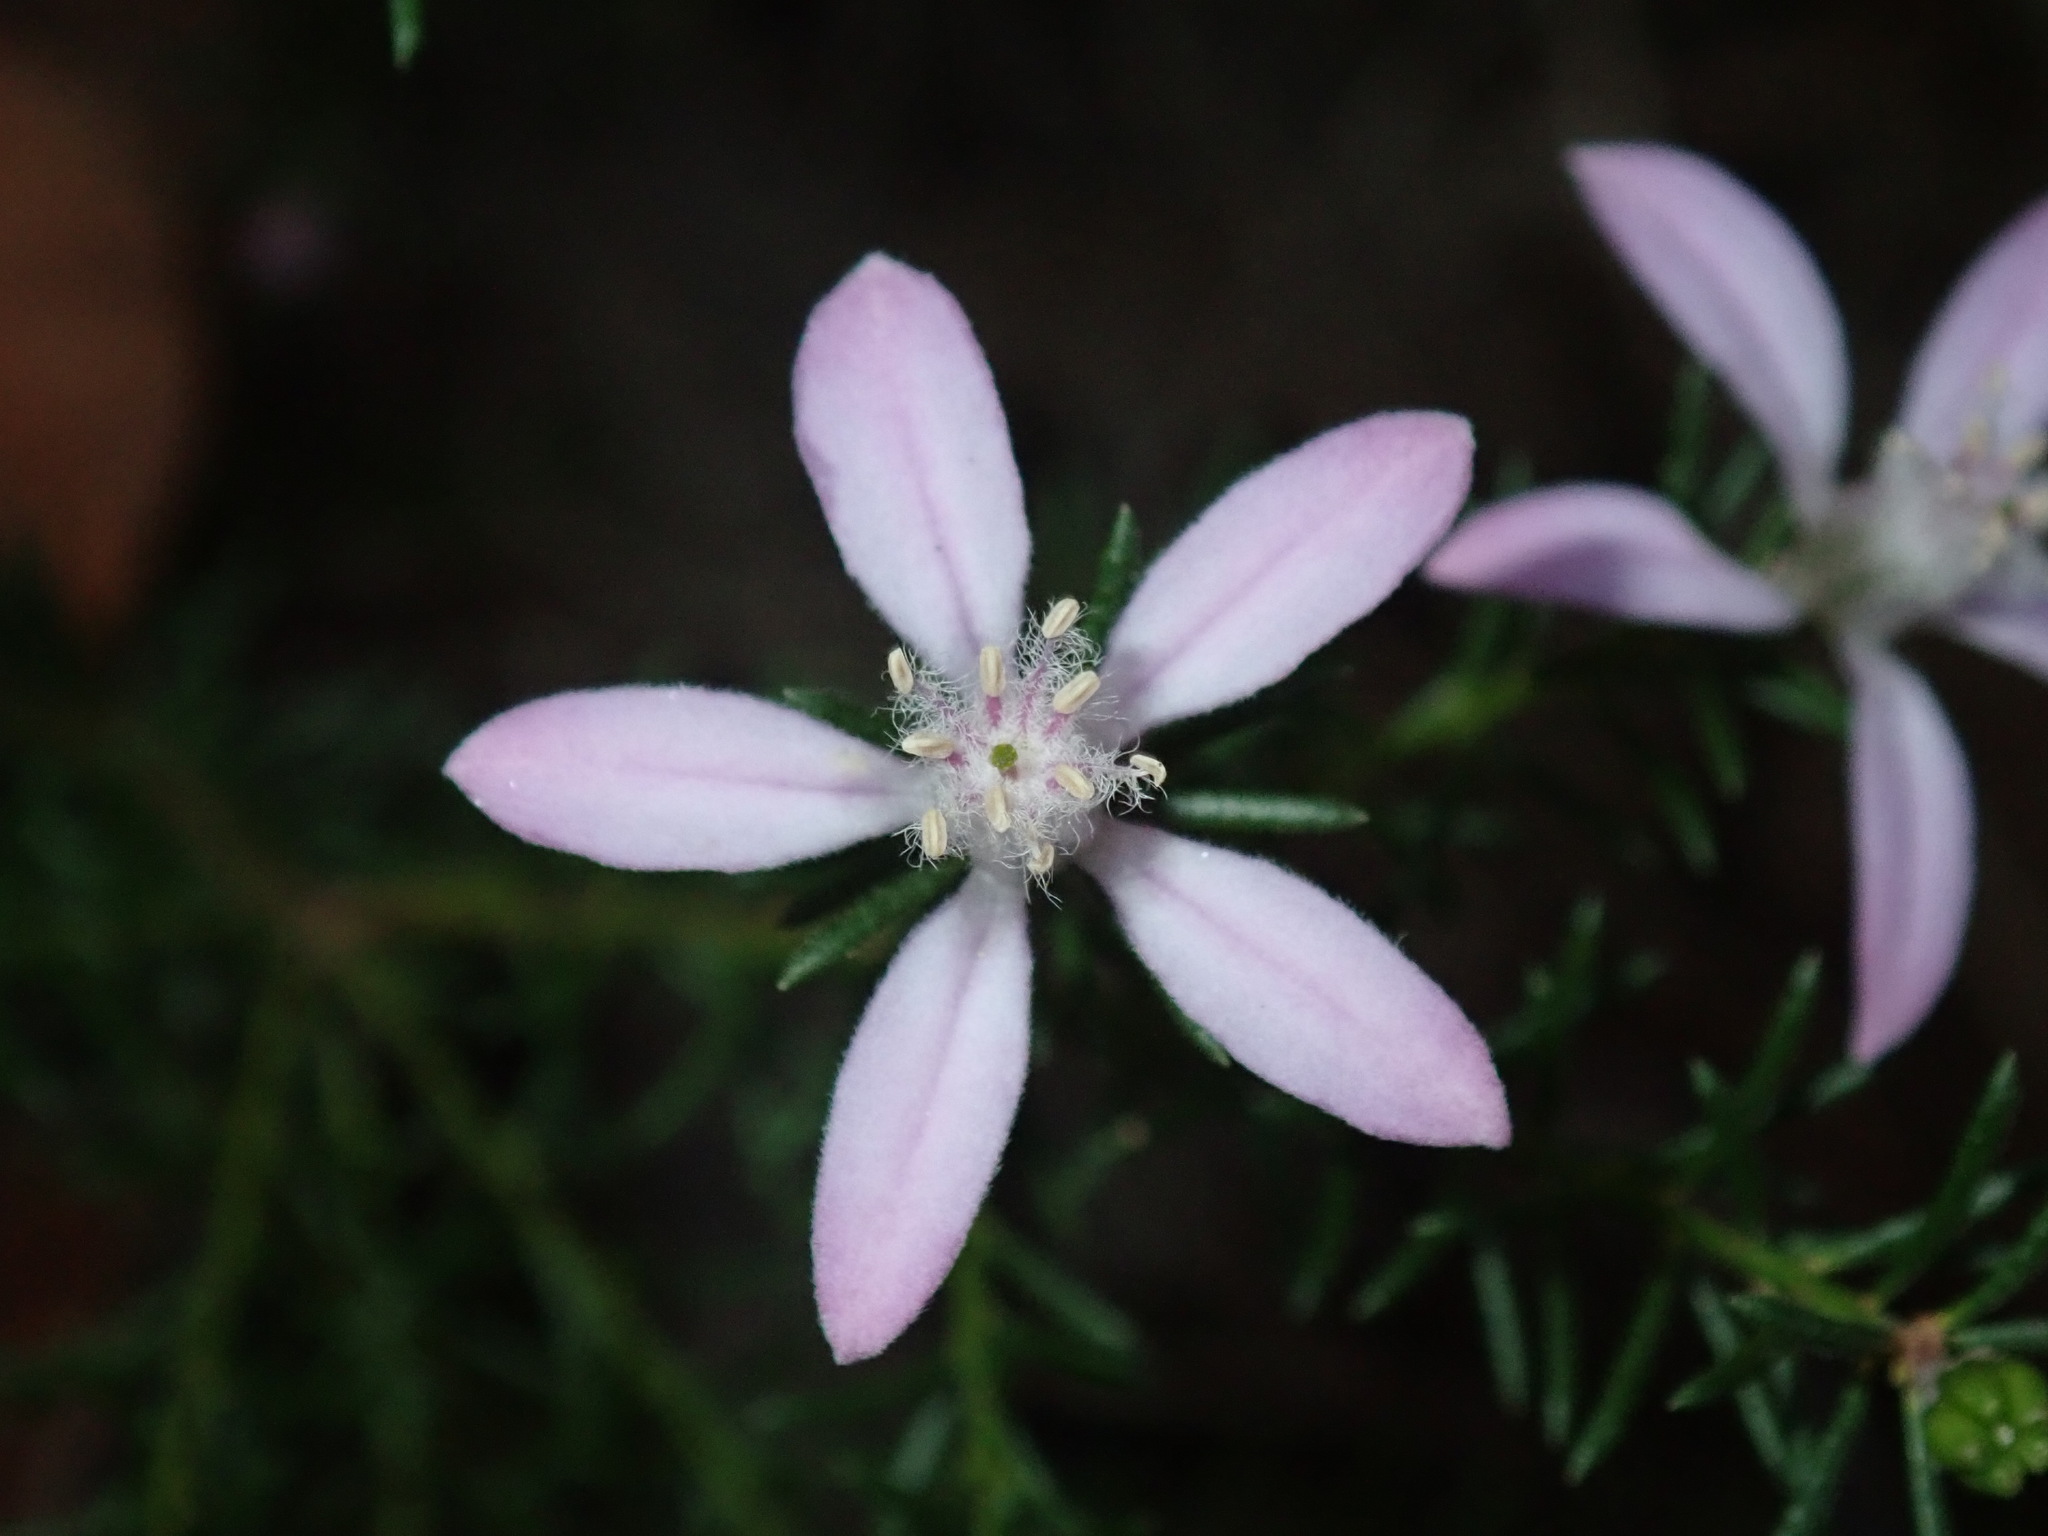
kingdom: Plantae
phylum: Tracheophyta
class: Magnoliopsida
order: Sapindales
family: Rutaceae
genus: Philotheca
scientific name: Philotheca salsolifolia
